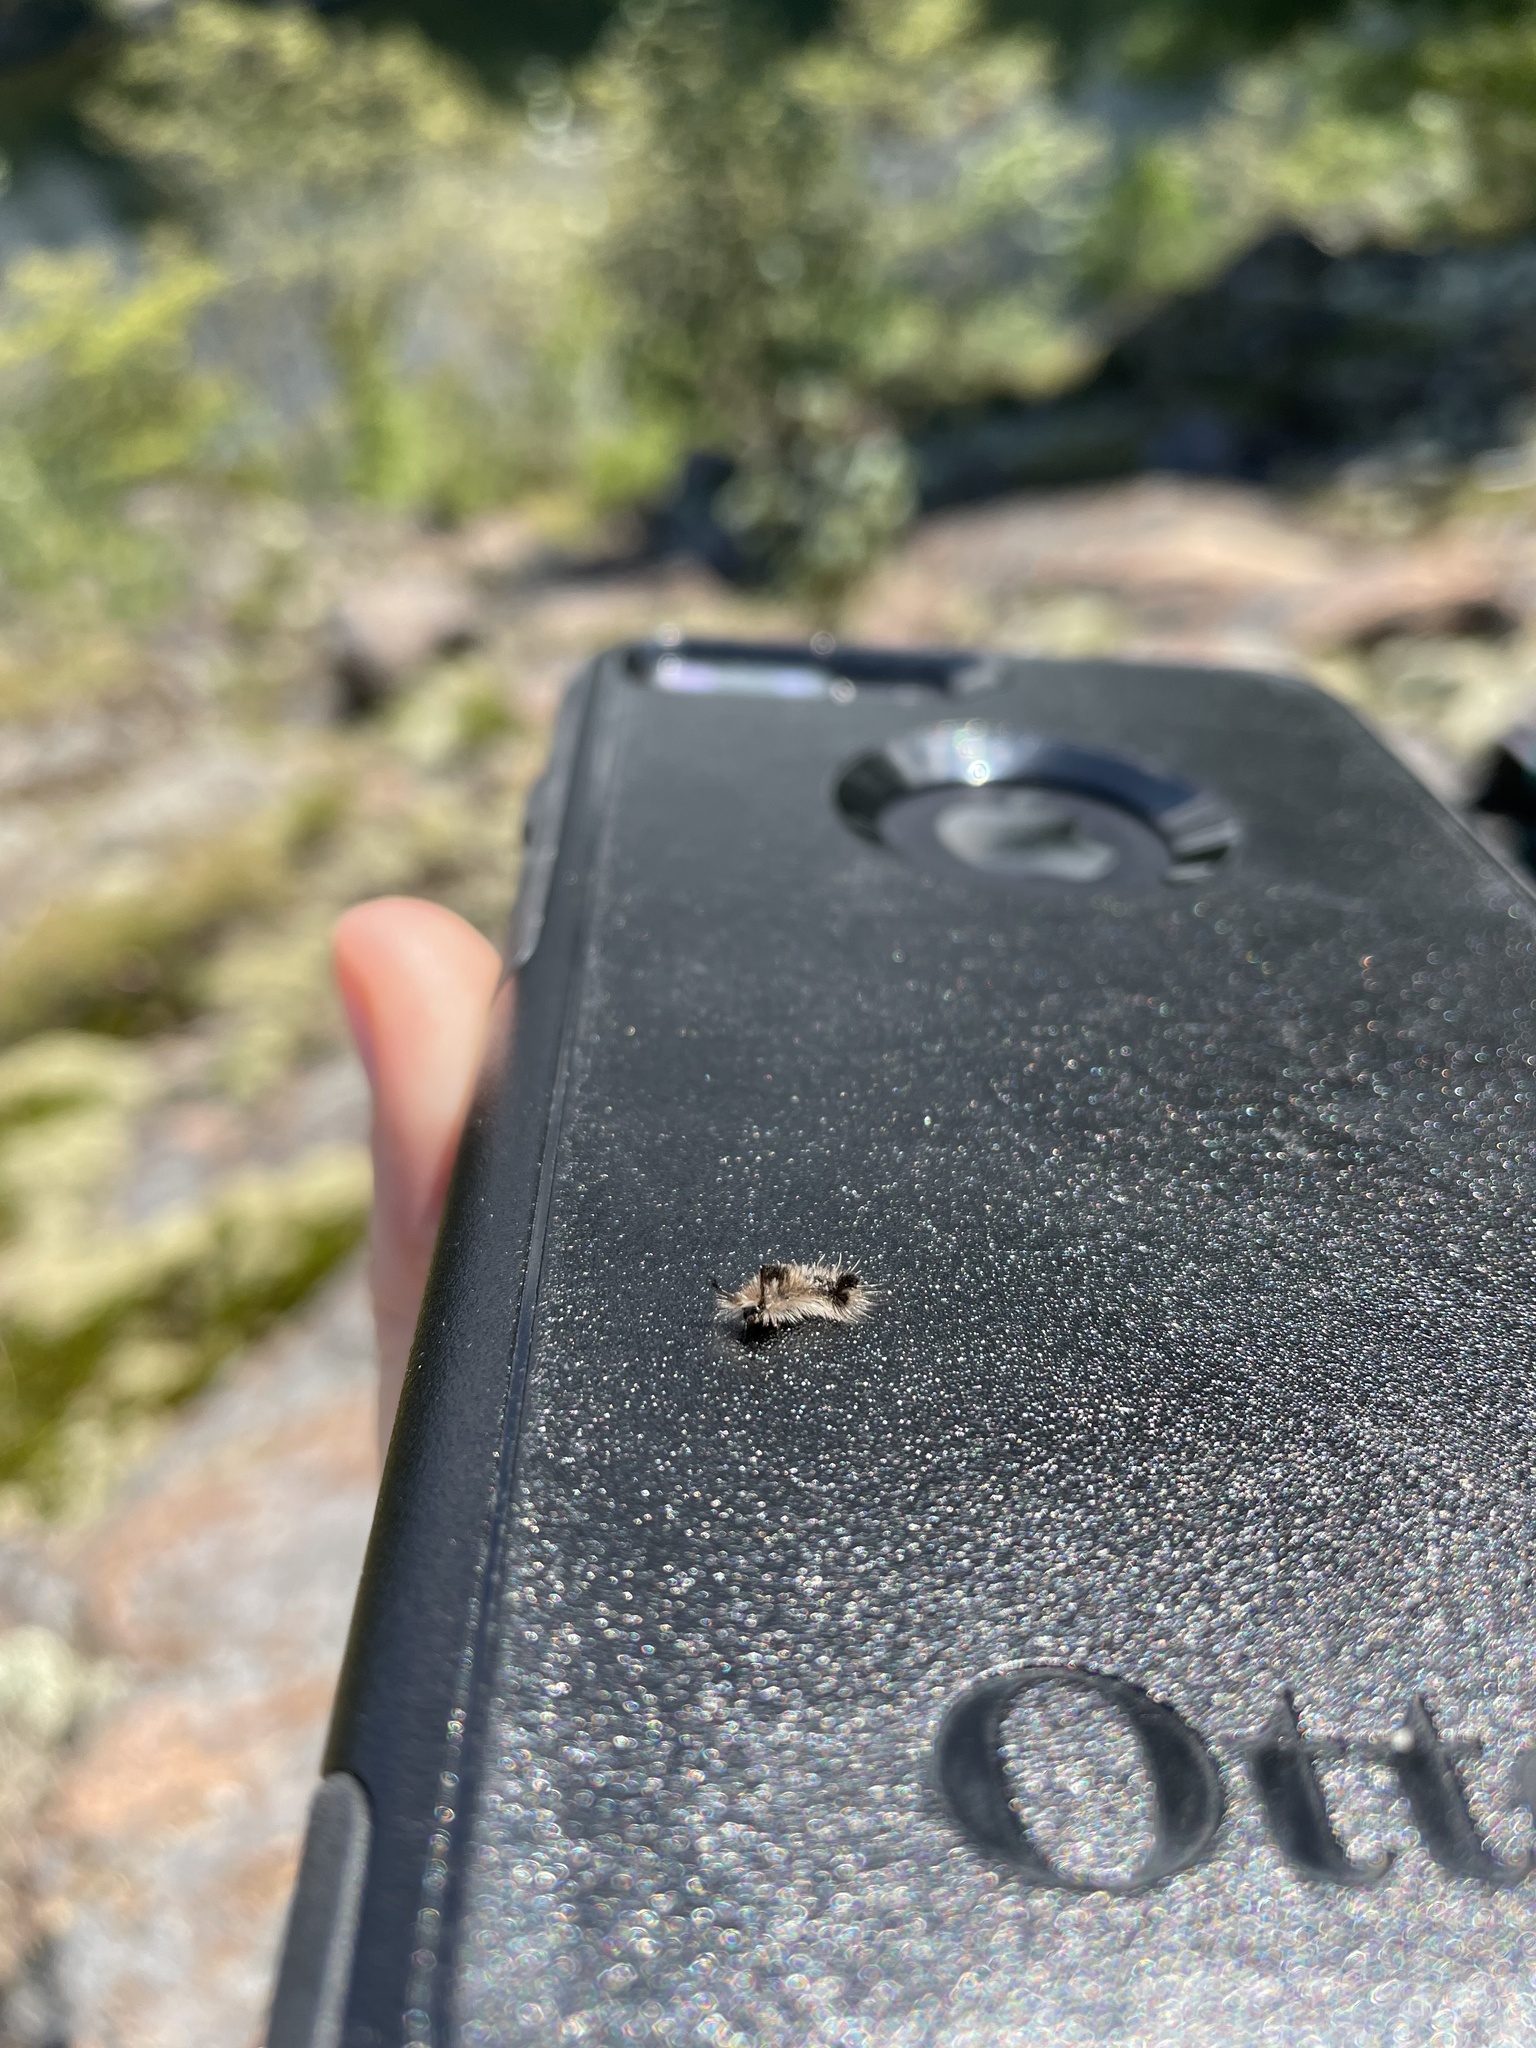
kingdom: Fungi
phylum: Basidiomycota
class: Agaricomycetes
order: Agaricales
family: Lycoperdaceae
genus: Apioperdon
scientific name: Apioperdon pyriforme
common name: Pear-shaped puffball
